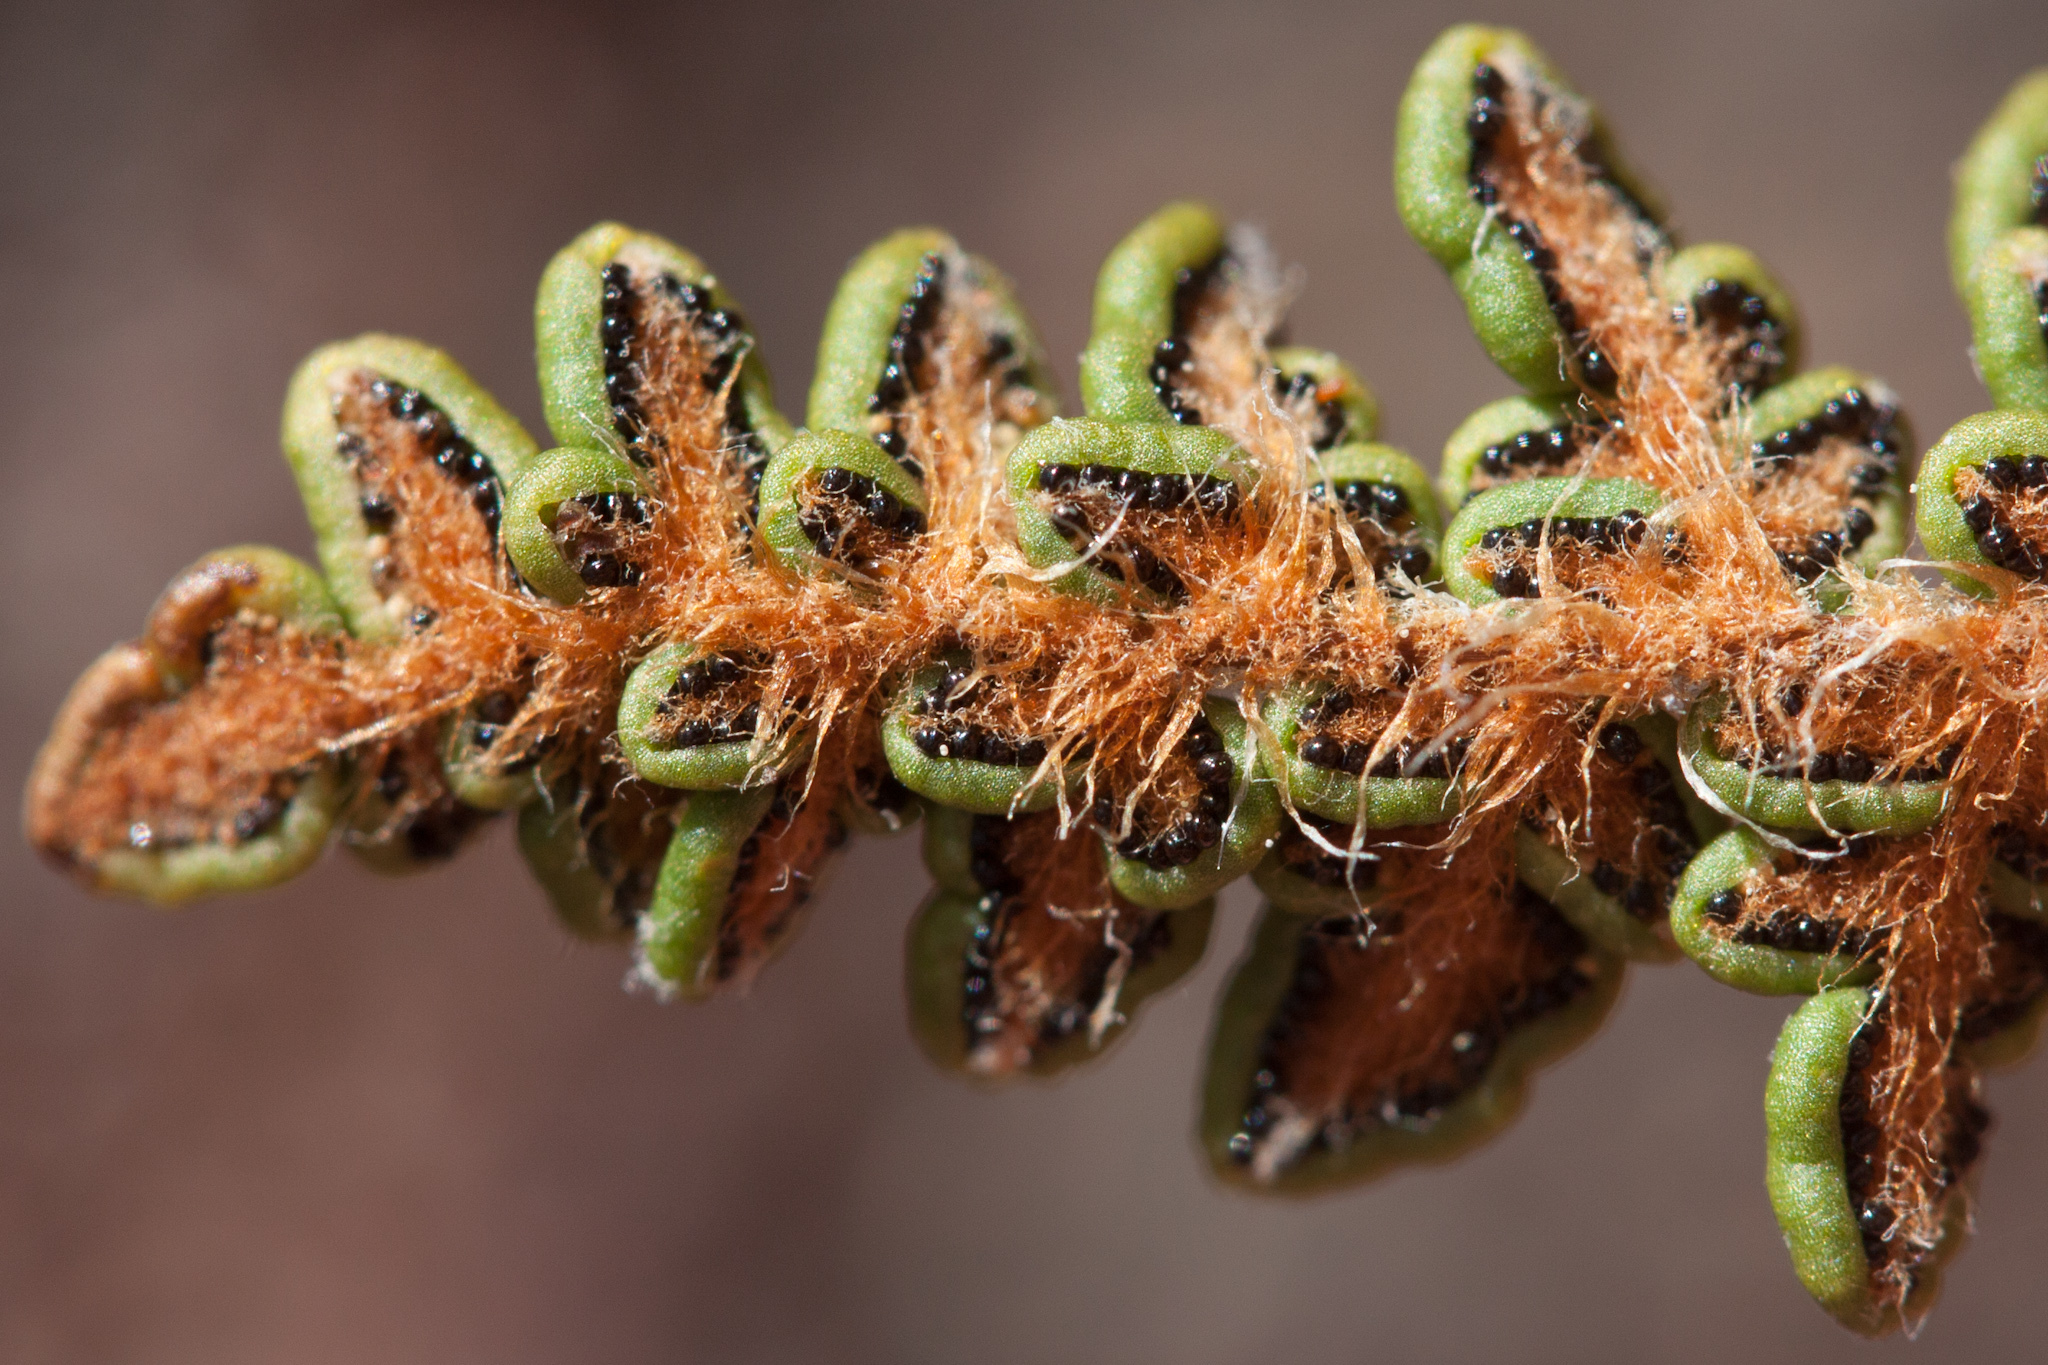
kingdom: Plantae
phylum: Tracheophyta
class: Polypodiopsida
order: Polypodiales
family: Pteridaceae
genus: Myriopteris
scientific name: Myriopteris gracillima
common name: Lace fern
